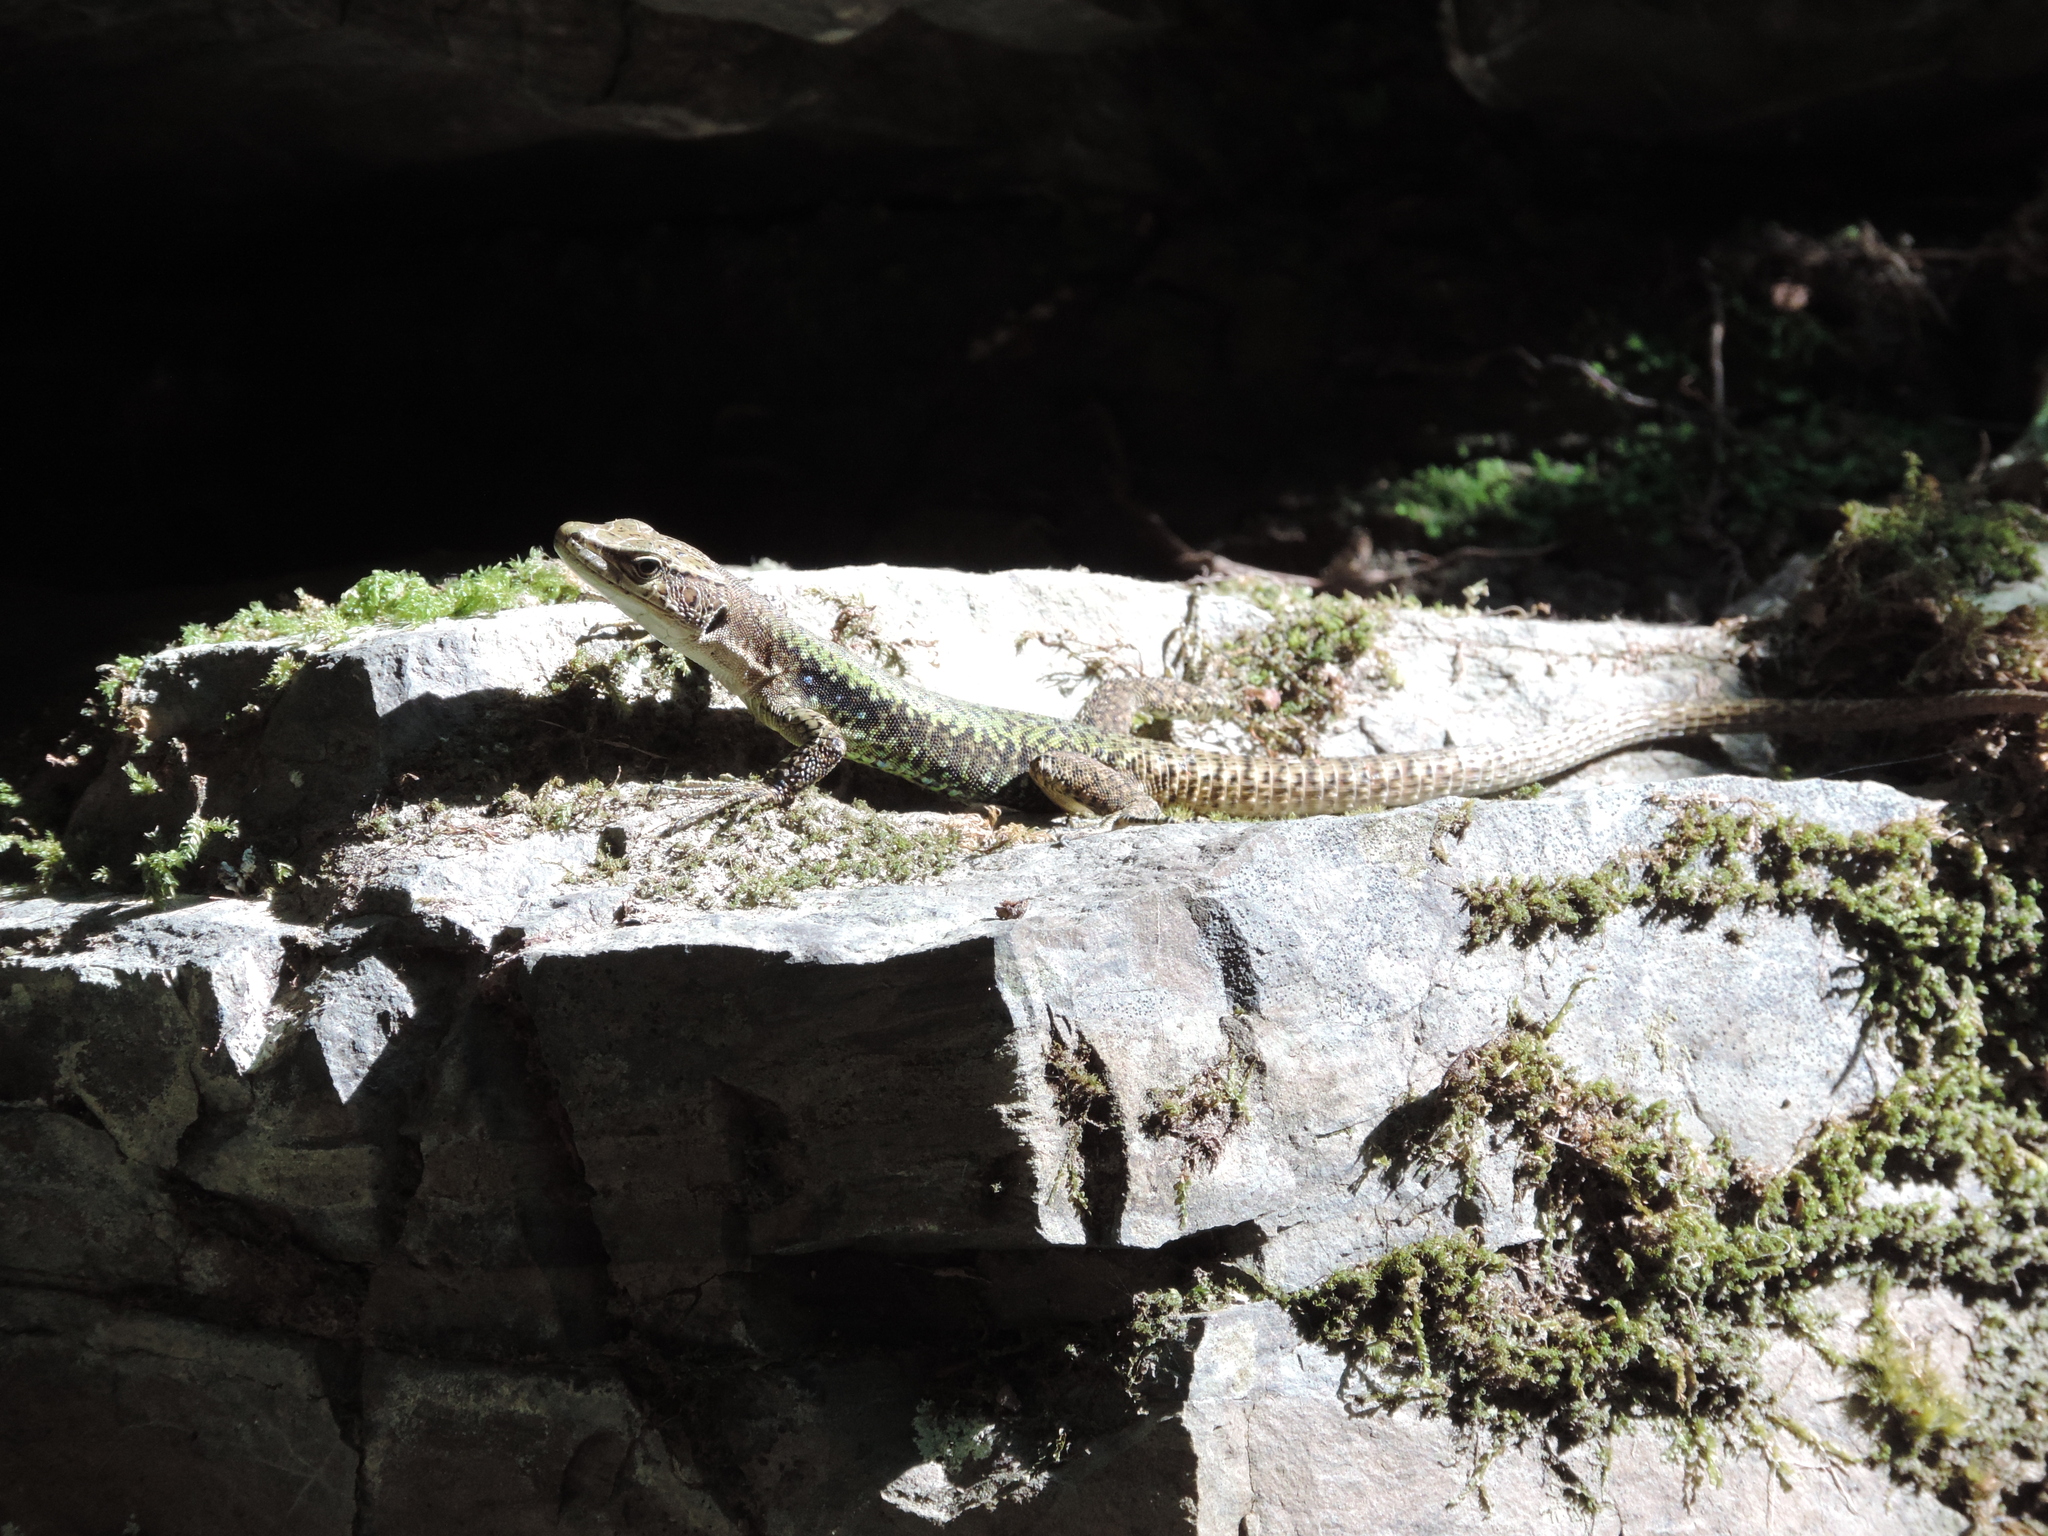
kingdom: Animalia
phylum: Chordata
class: Squamata
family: Lacertidae
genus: Darevskia
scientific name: Darevskia brauneri
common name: Brauner's rock lizard
